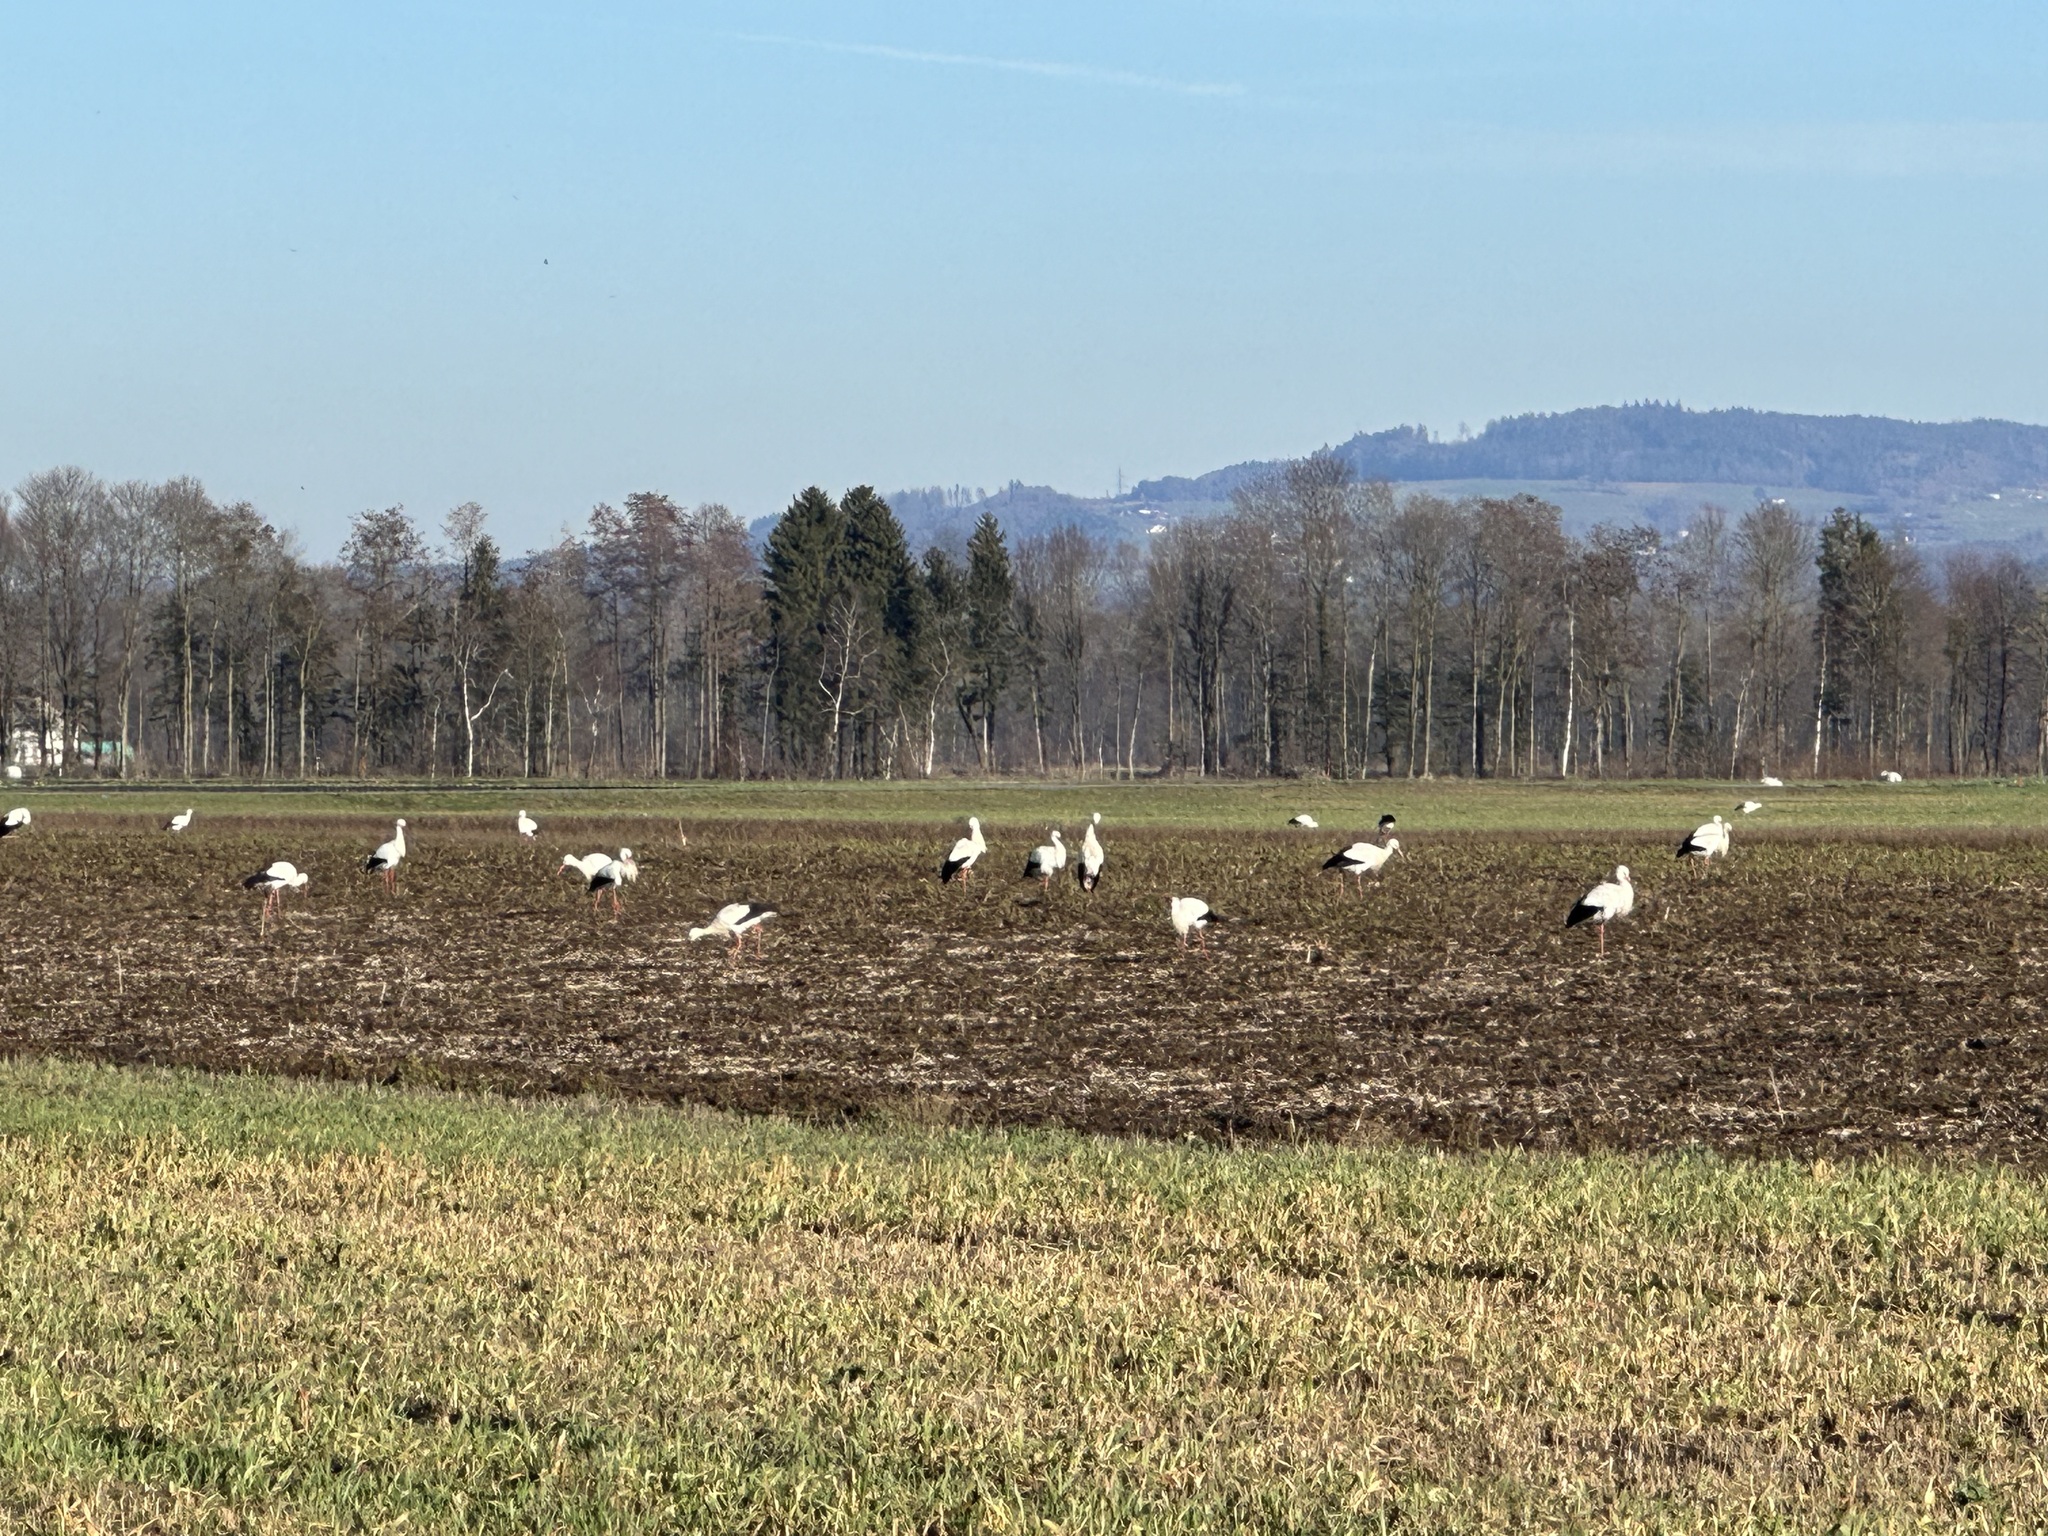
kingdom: Animalia
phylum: Chordata
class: Aves
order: Ciconiiformes
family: Ciconiidae
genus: Ciconia
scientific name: Ciconia ciconia
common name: White stork
